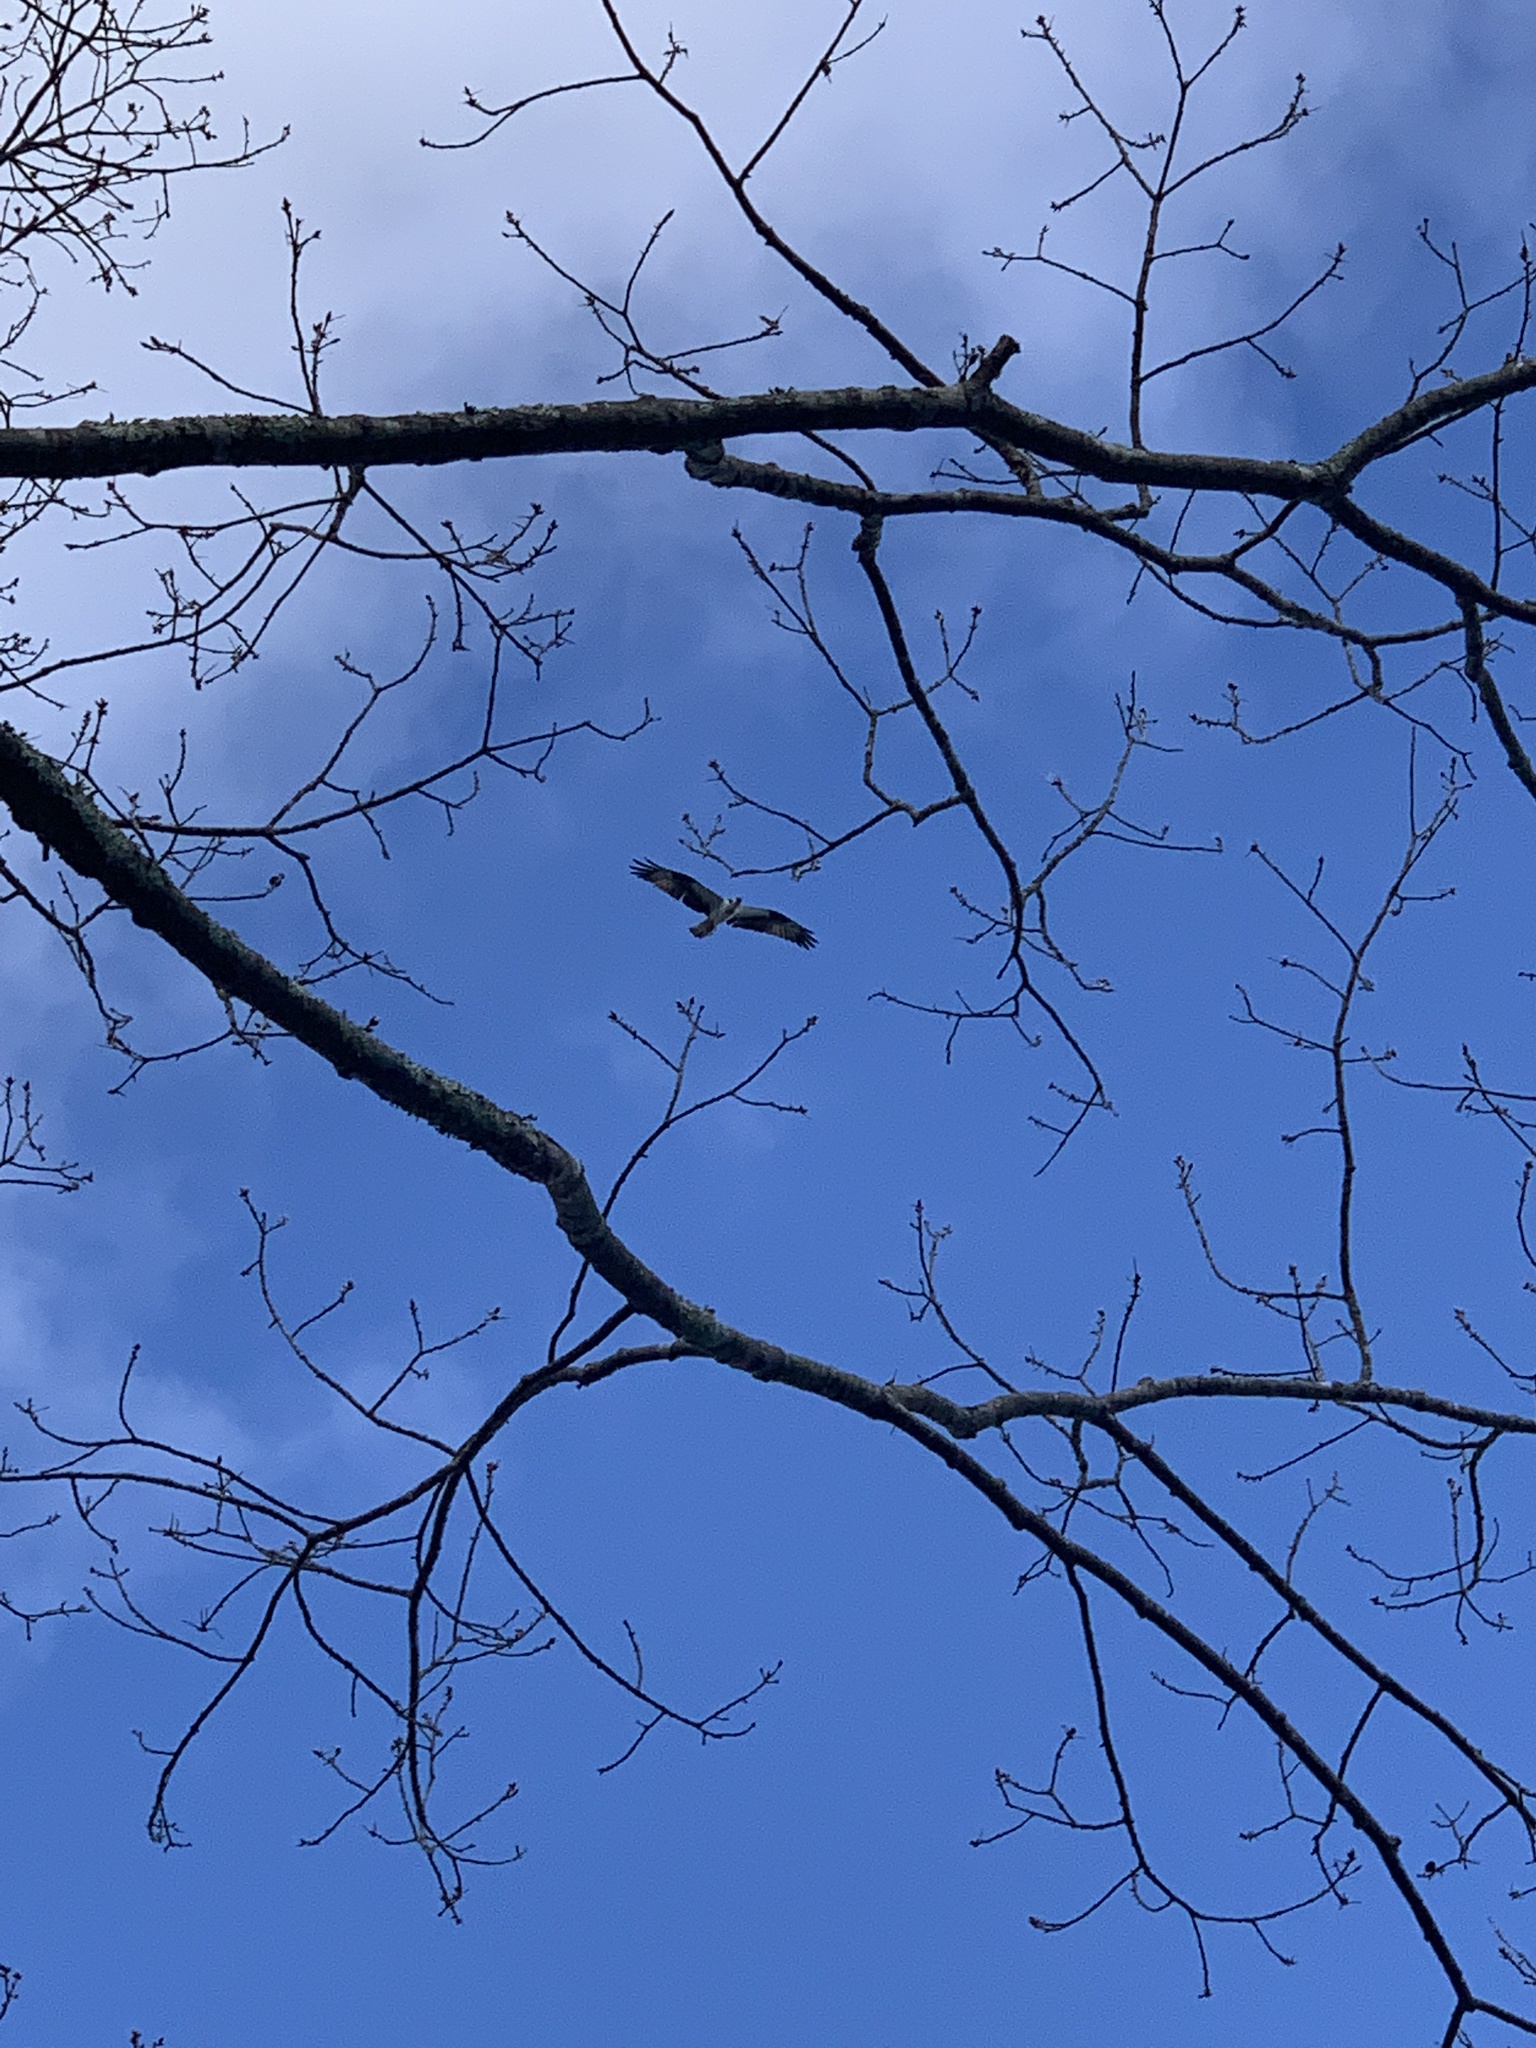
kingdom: Animalia
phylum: Chordata
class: Aves
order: Accipitriformes
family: Pandionidae
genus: Pandion
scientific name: Pandion haliaetus
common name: Osprey
